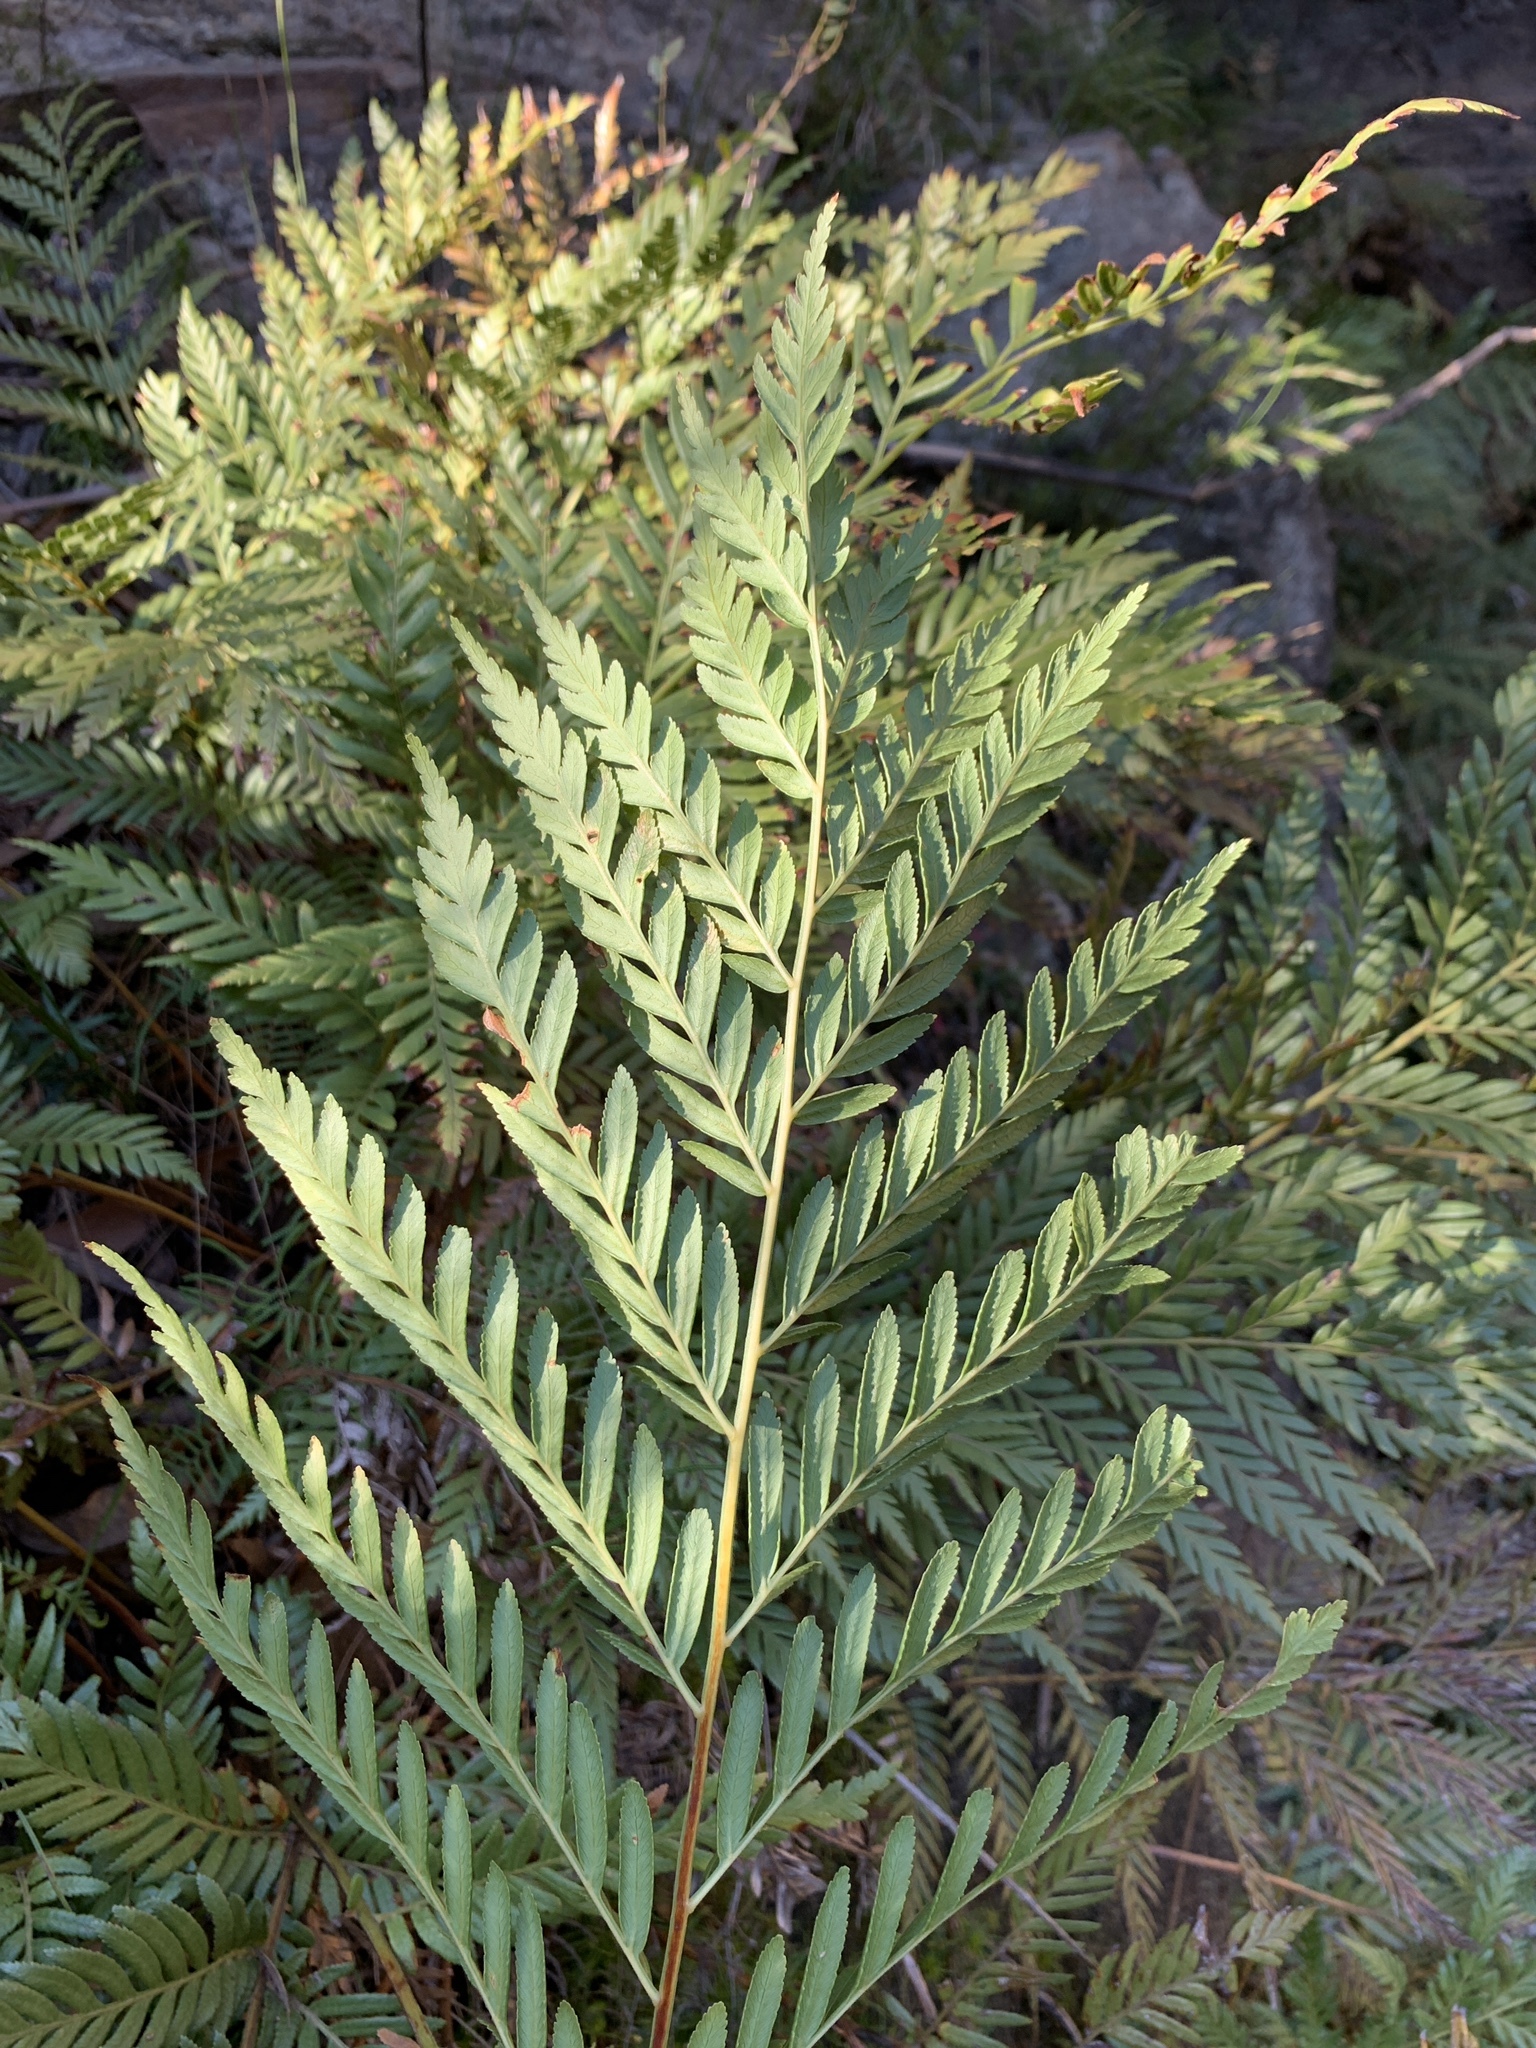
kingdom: Plantae
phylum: Tracheophyta
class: Polypodiopsida
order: Osmundales
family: Osmundaceae
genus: Todea
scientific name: Todea barbara
